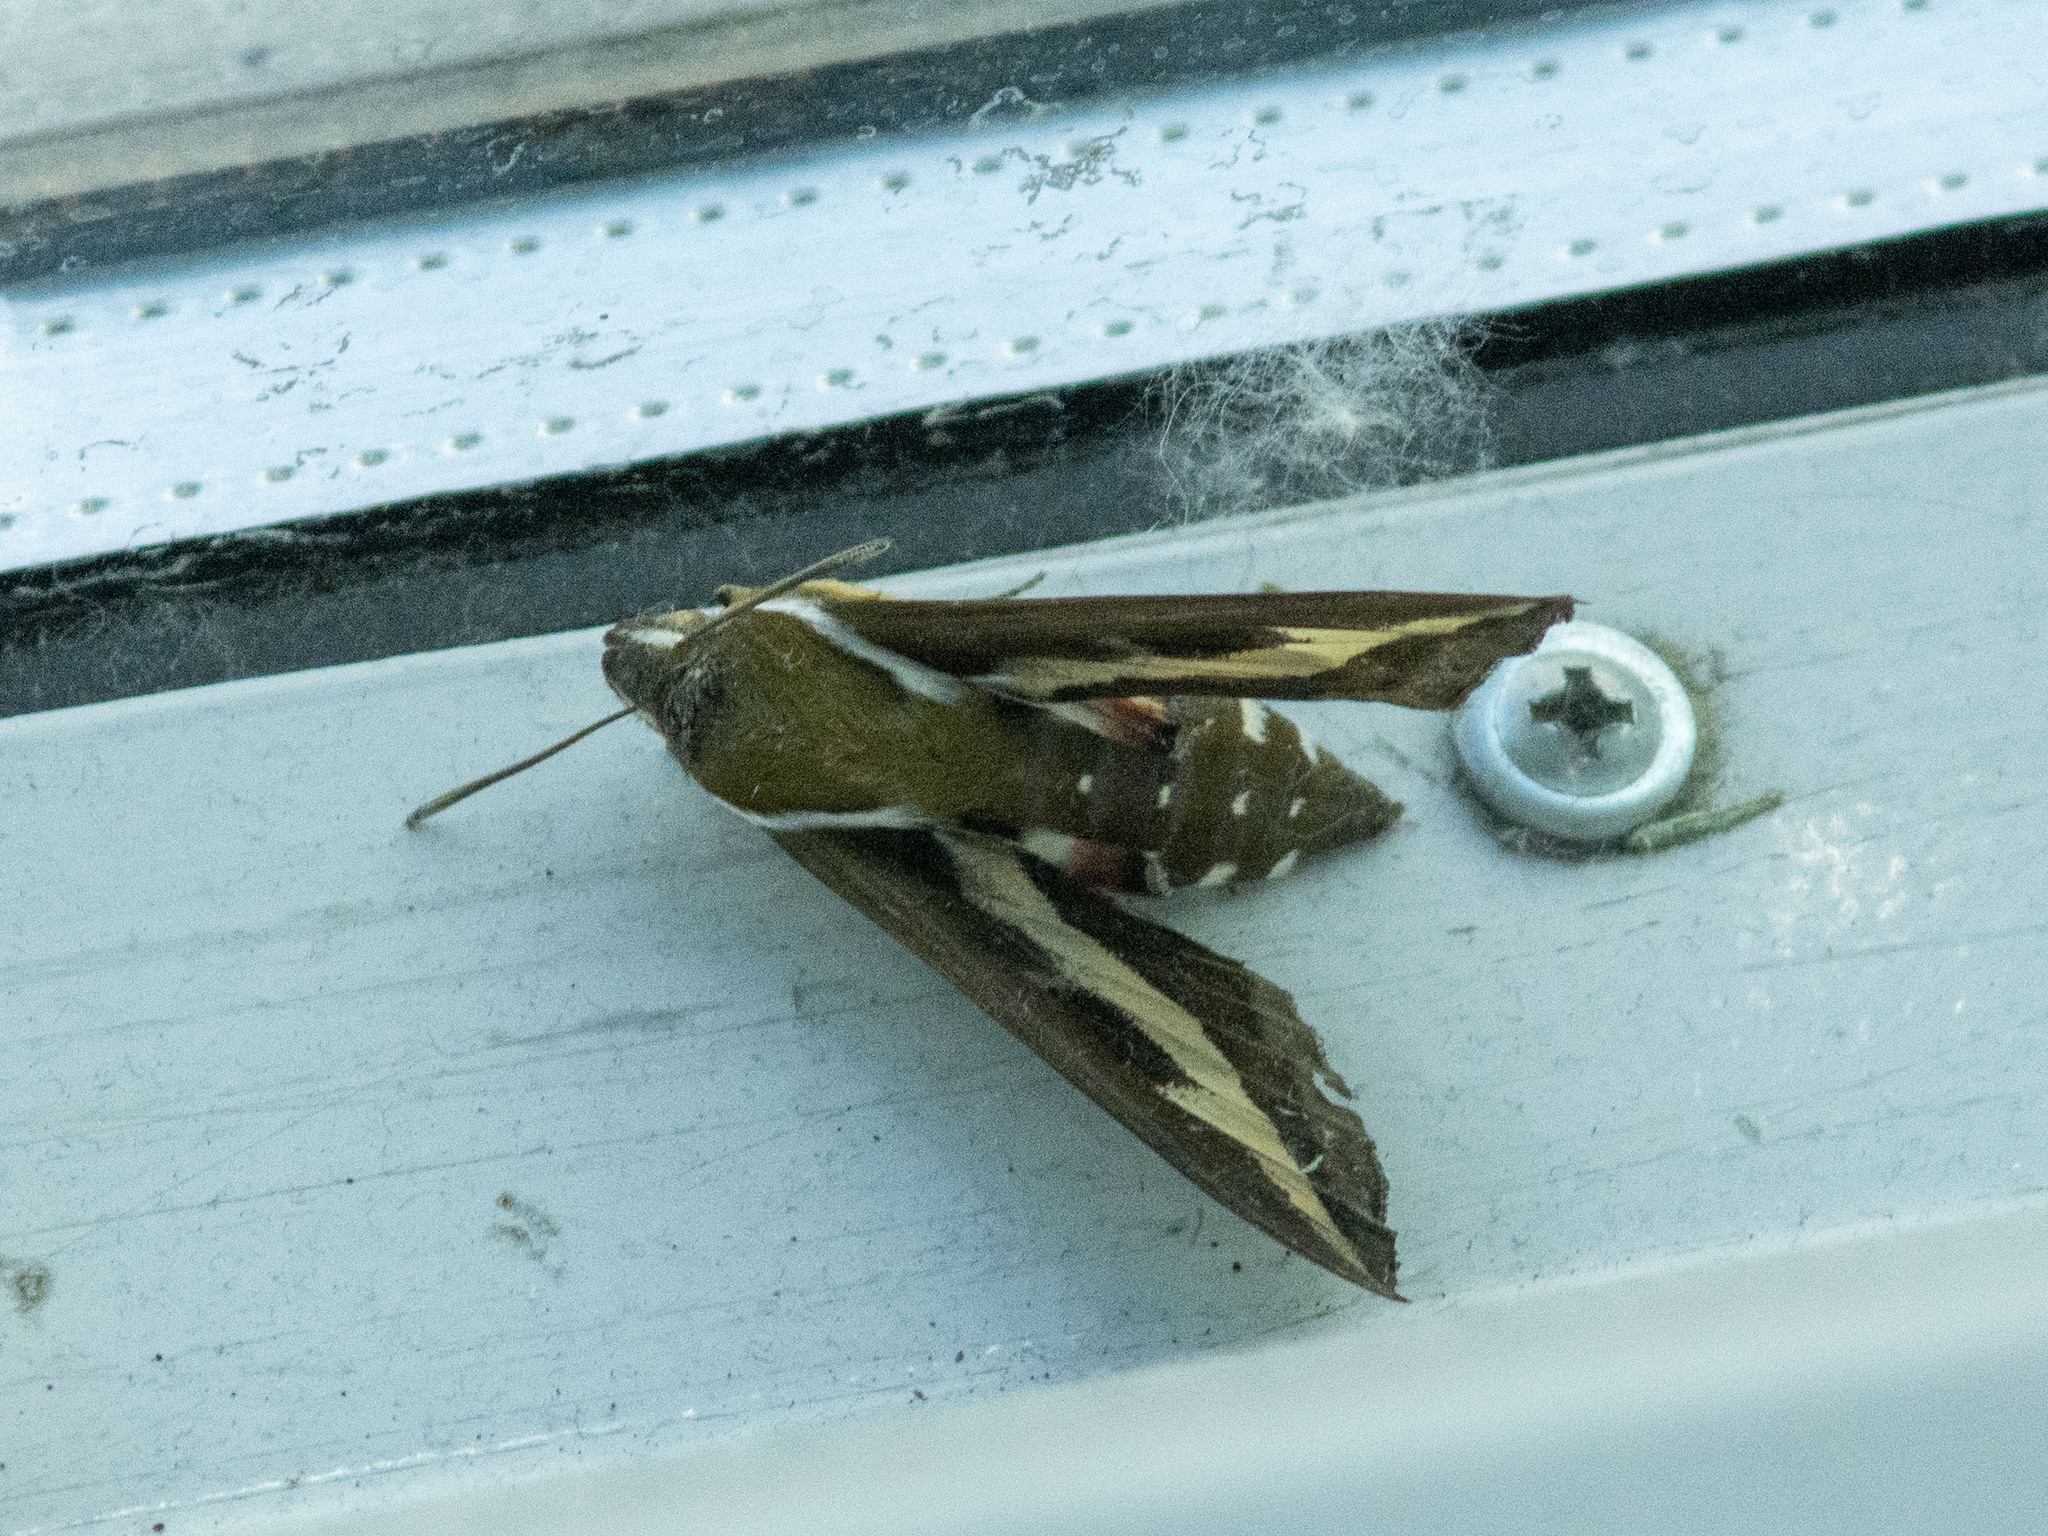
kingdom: Animalia
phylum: Arthropoda
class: Insecta
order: Lepidoptera
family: Sphingidae
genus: Hyles
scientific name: Hyles gallii
